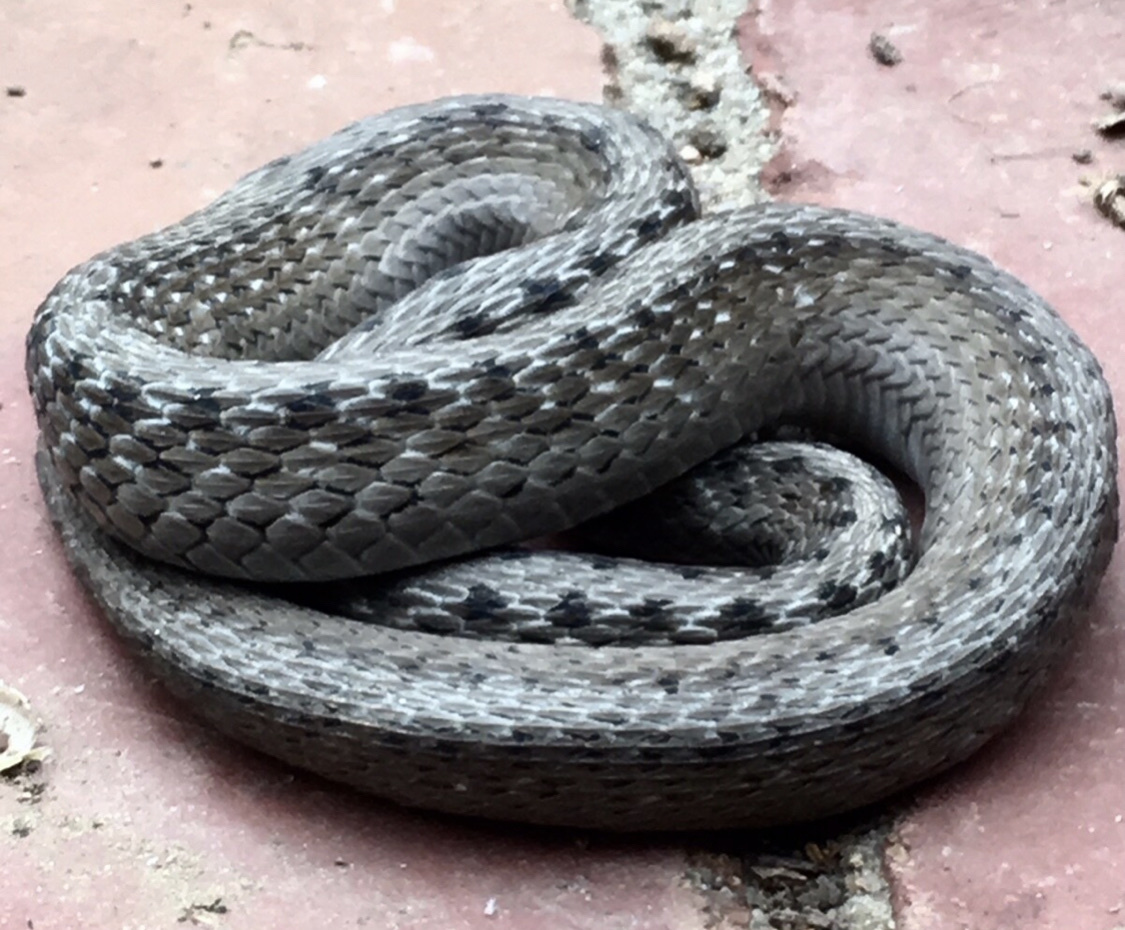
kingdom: Animalia
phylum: Chordata
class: Squamata
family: Colubridae
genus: Storeria
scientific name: Storeria dekayi
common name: (dekay’s) brown snake
